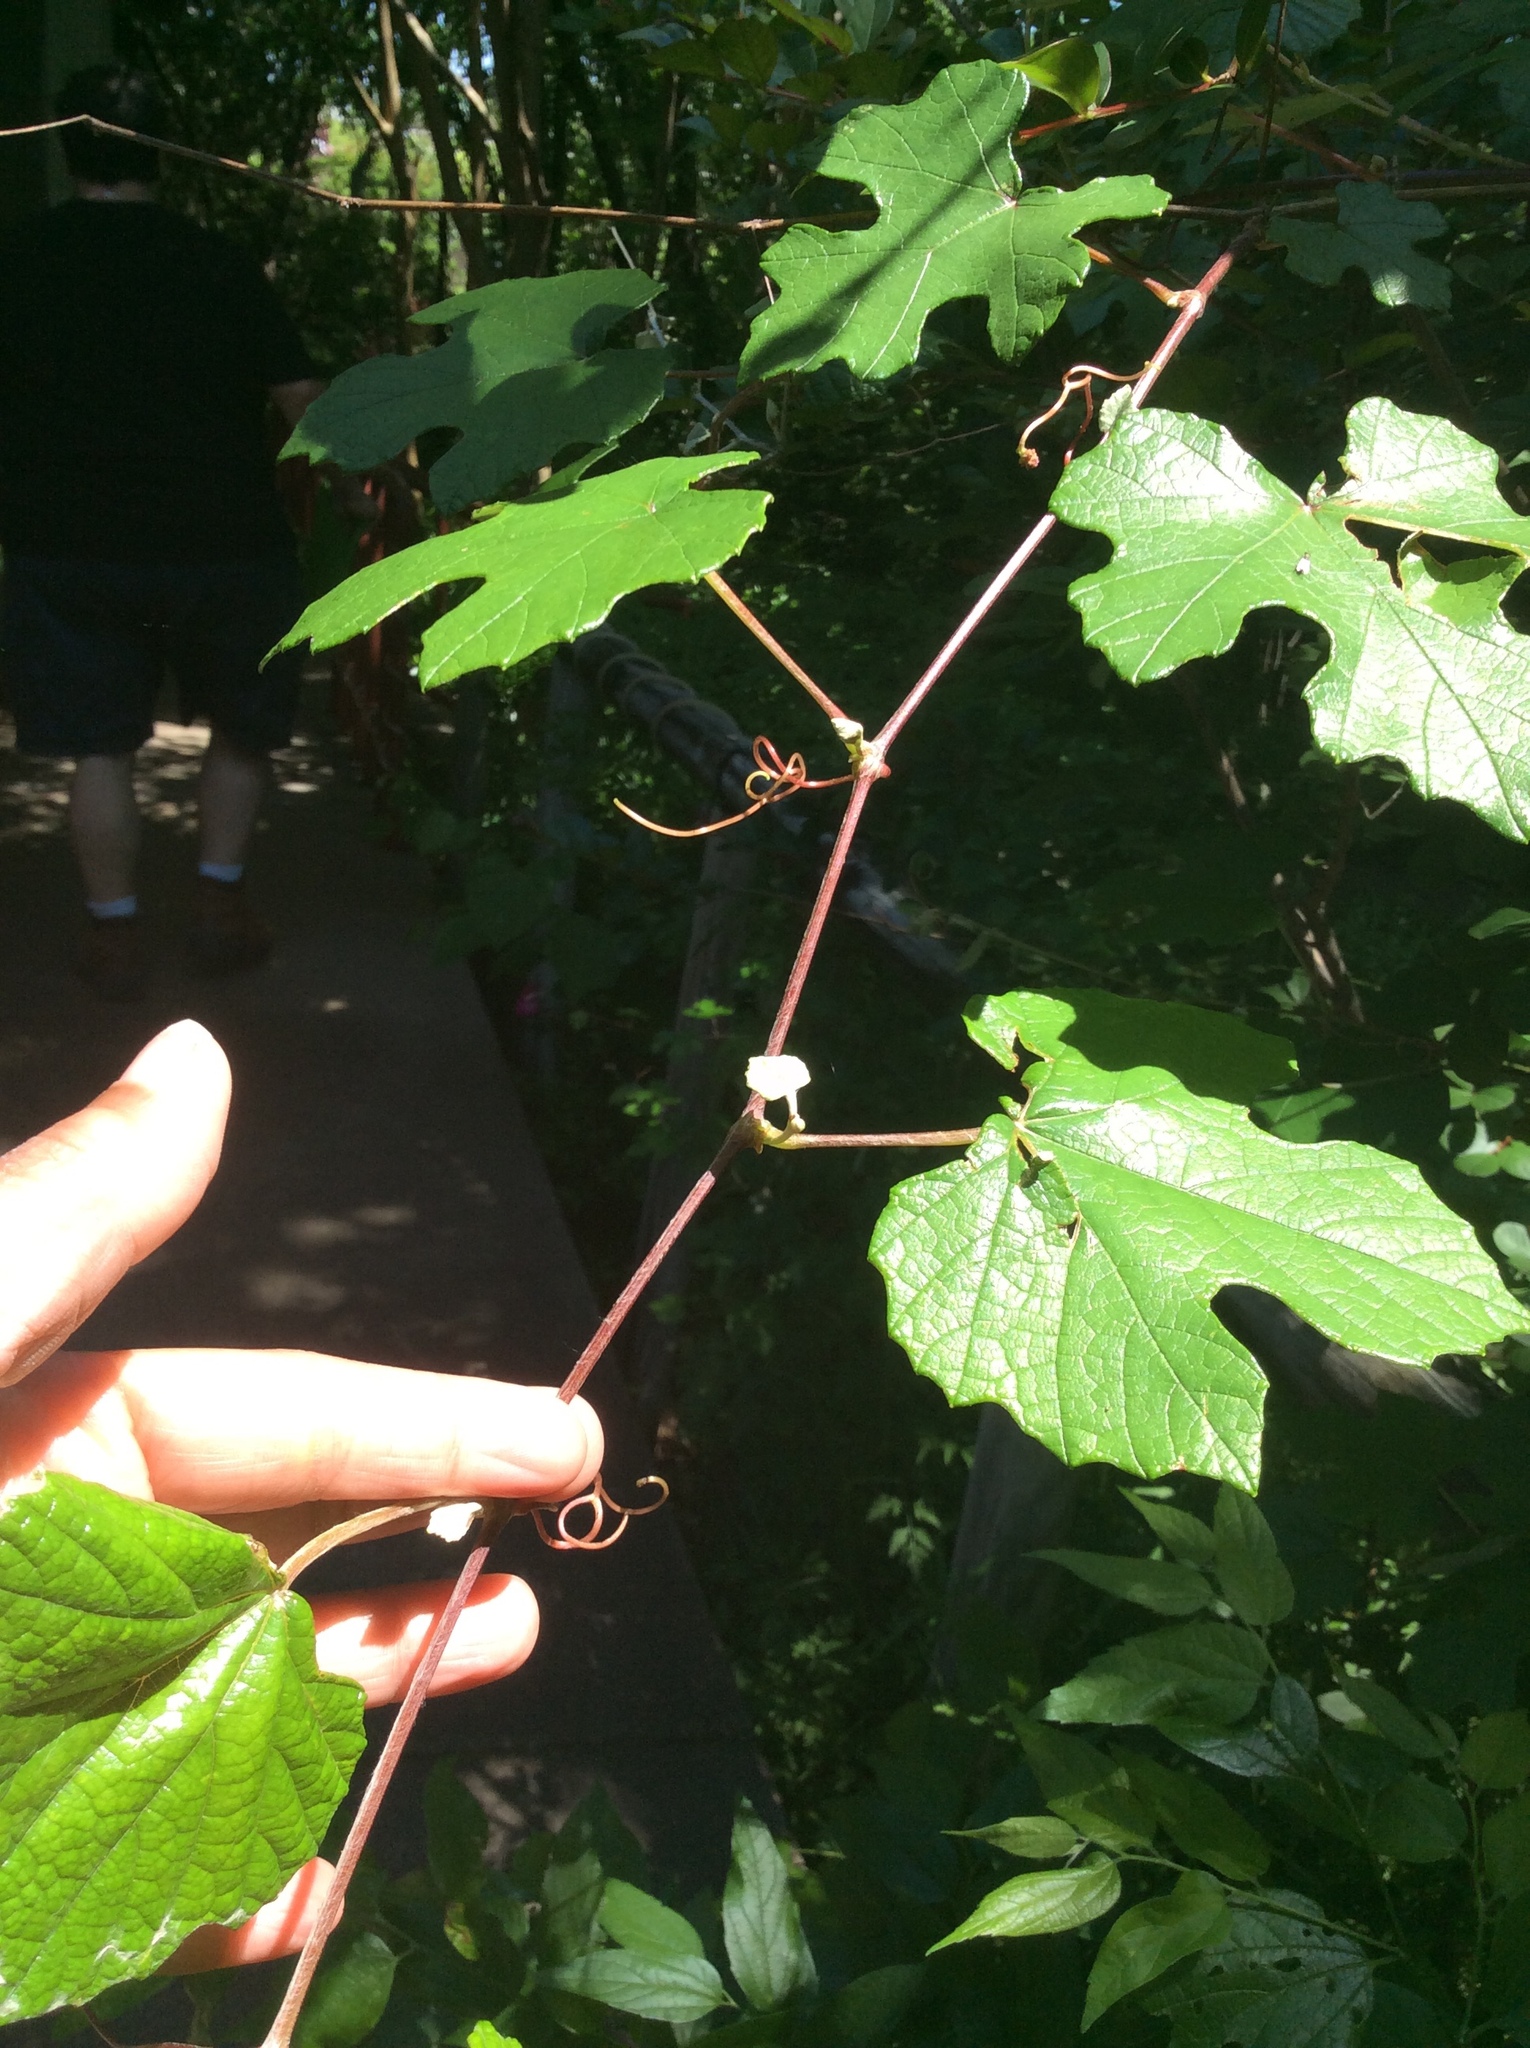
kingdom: Plantae
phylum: Tracheophyta
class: Magnoliopsida
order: Vitales
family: Vitaceae
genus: Vitis
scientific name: Vitis mustangensis
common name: Mustang grape
